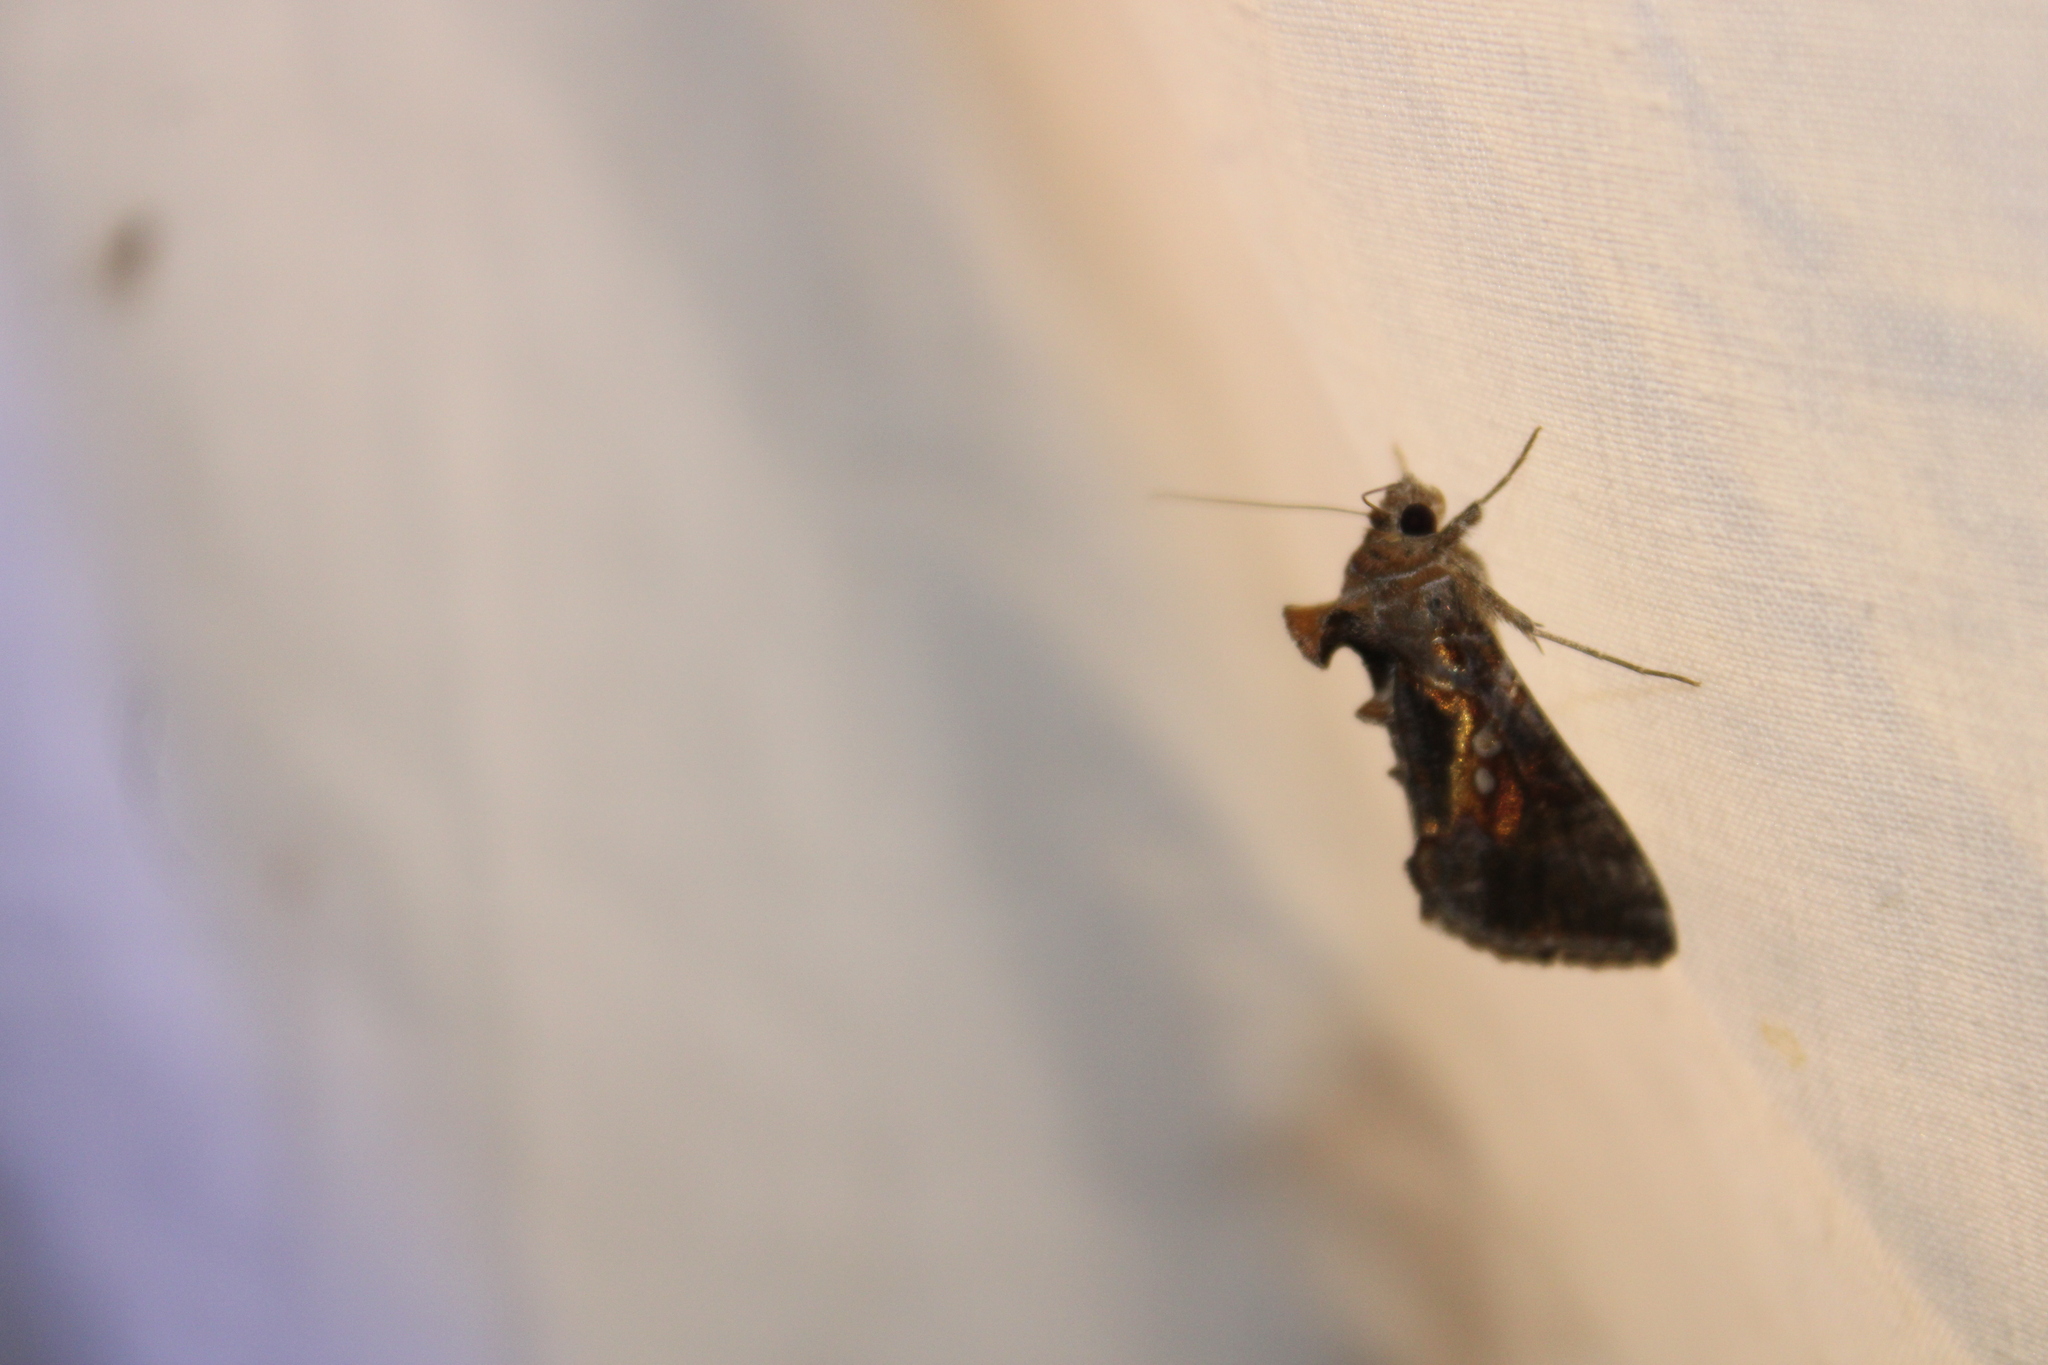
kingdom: Animalia
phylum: Arthropoda
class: Insecta
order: Lepidoptera
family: Noctuidae
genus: Chrysodeixis
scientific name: Chrysodeixis includens
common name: Cutworm moth
